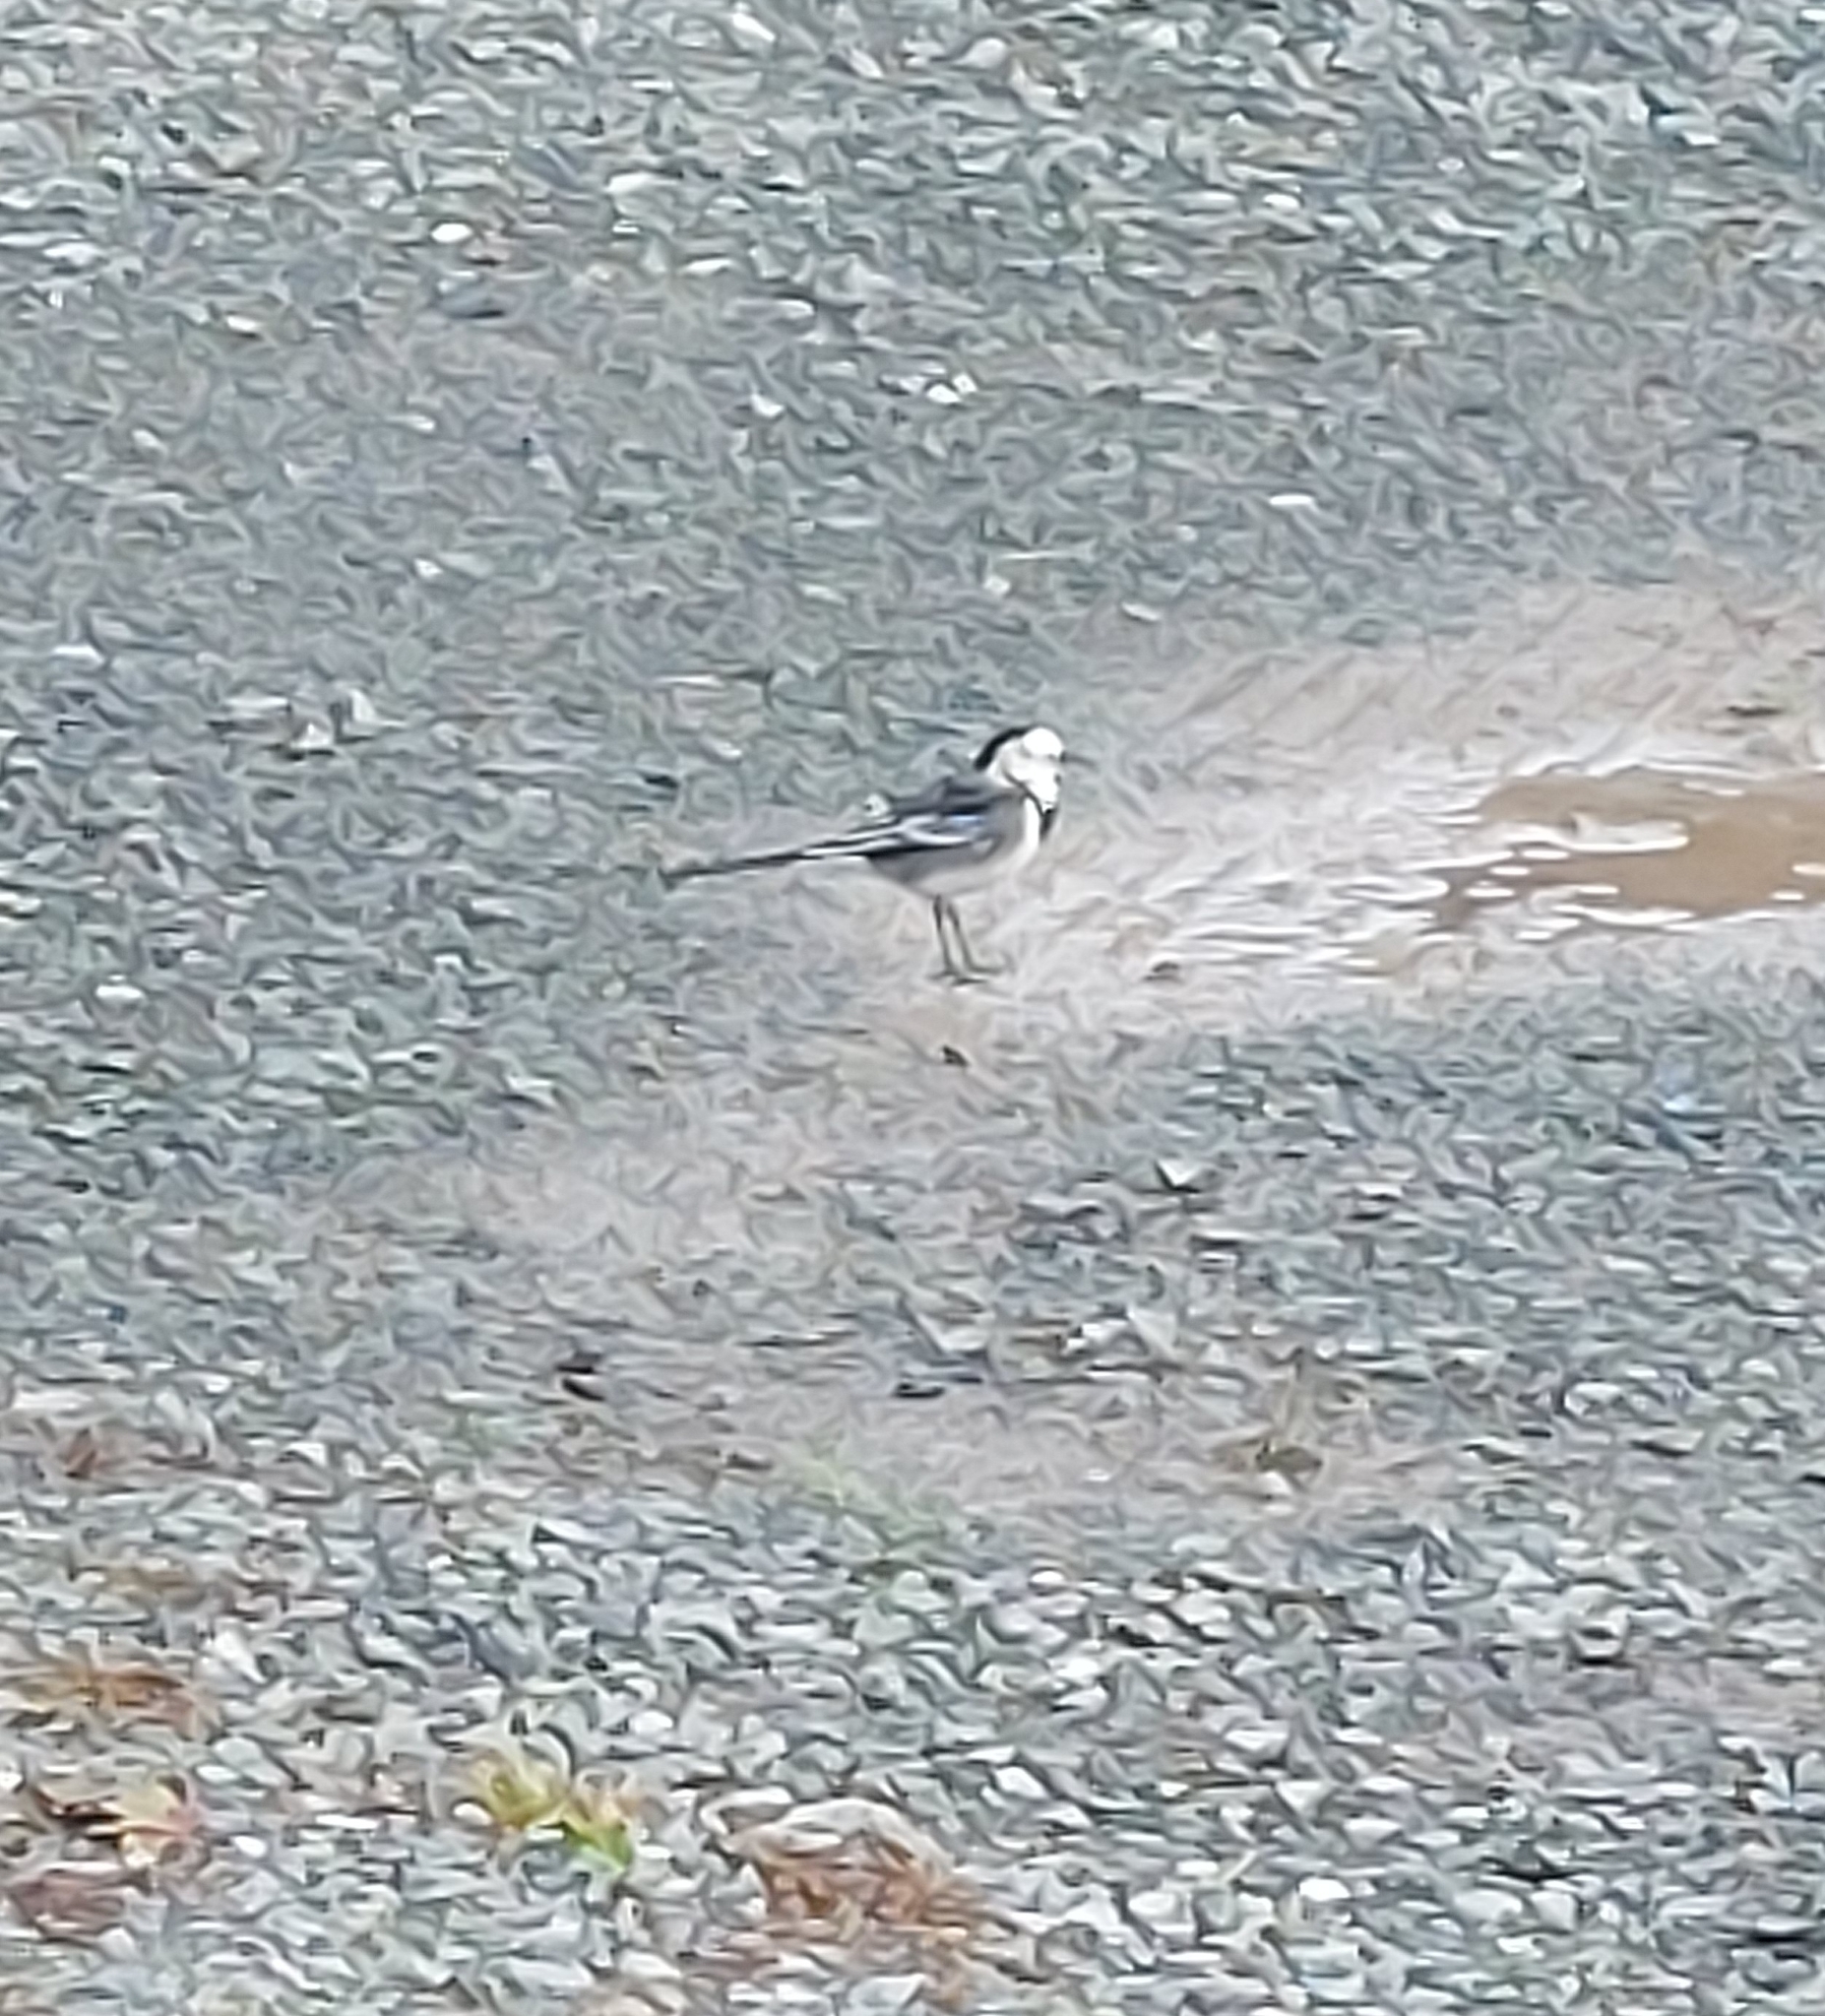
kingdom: Animalia
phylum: Chordata
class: Aves
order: Passeriformes
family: Motacillidae
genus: Motacilla
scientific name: Motacilla alba
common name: White wagtail
